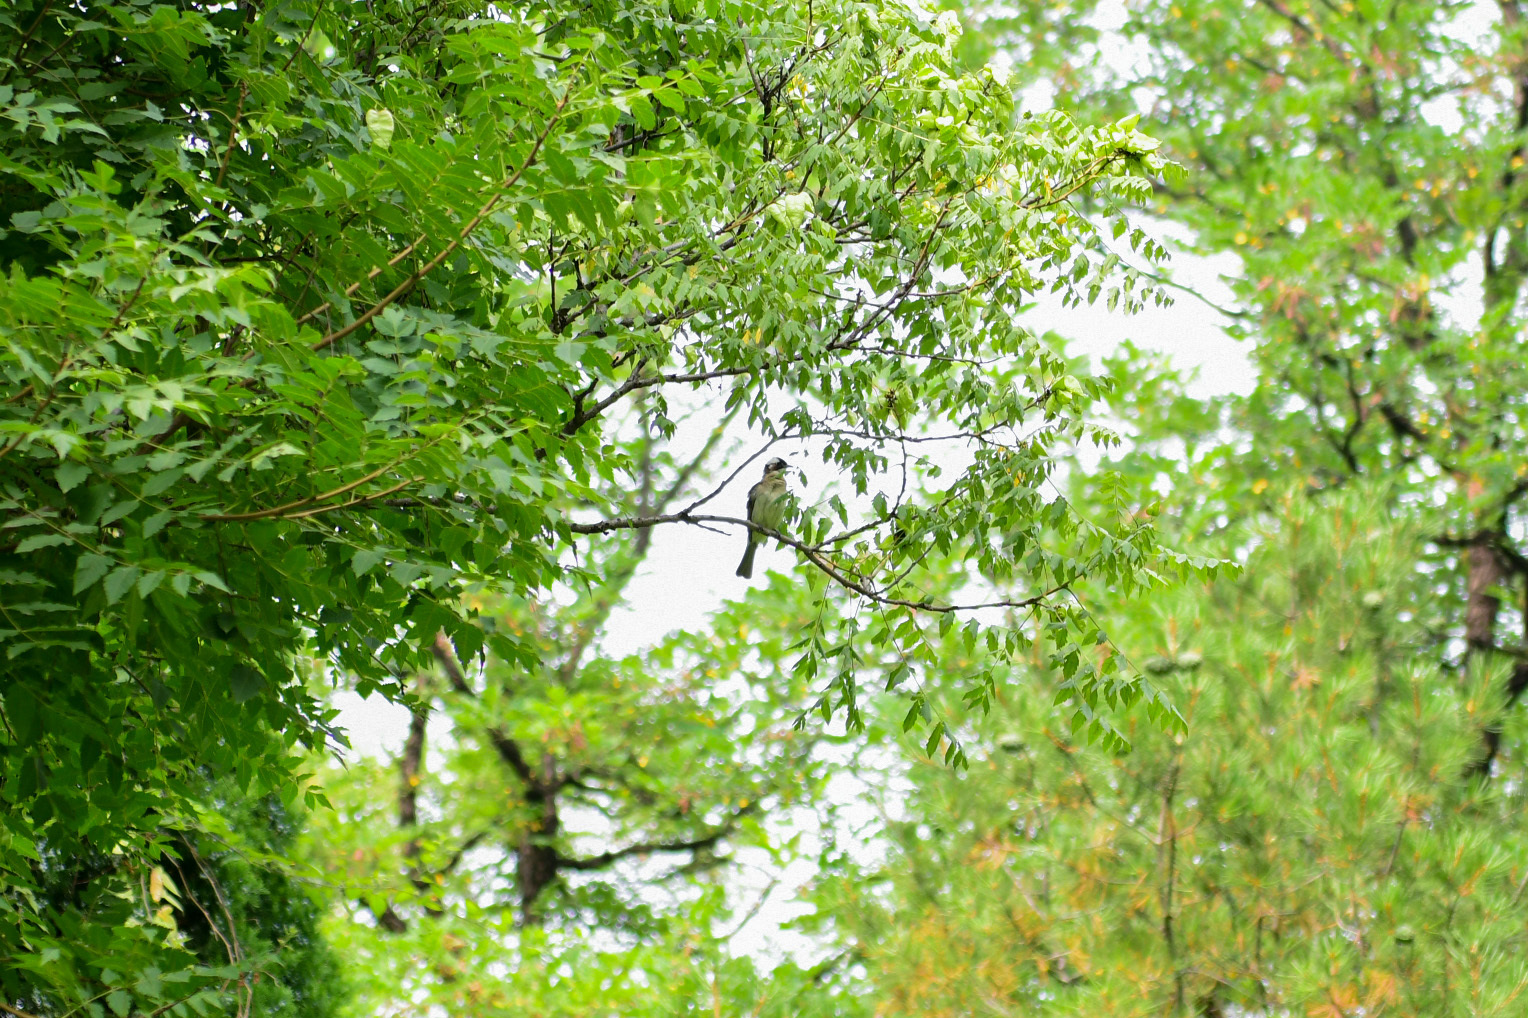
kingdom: Animalia
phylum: Chordata
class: Aves
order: Passeriformes
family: Pycnonotidae
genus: Pycnonotus
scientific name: Pycnonotus sinensis
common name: Light-vented bulbul
